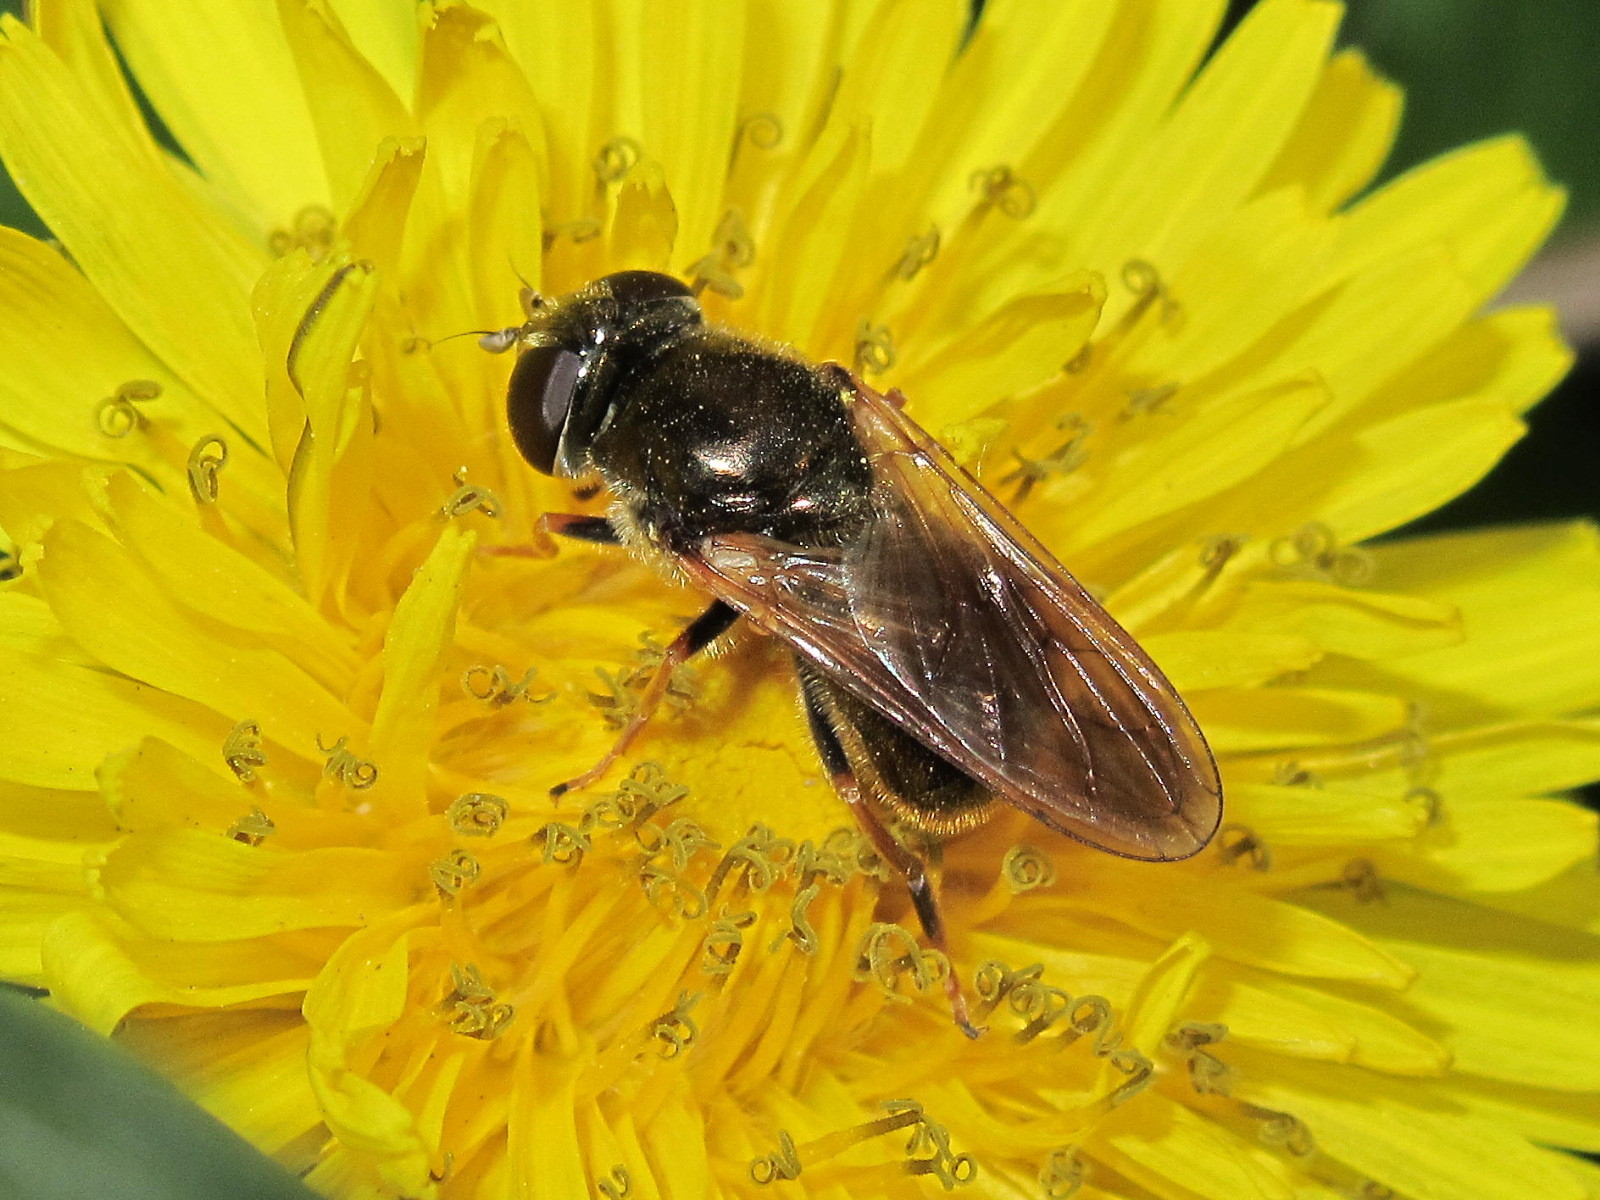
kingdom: Animalia
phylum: Arthropoda
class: Insecta
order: Diptera
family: Syrphidae
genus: Cheilosia
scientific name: Cheilosia nebulosa
